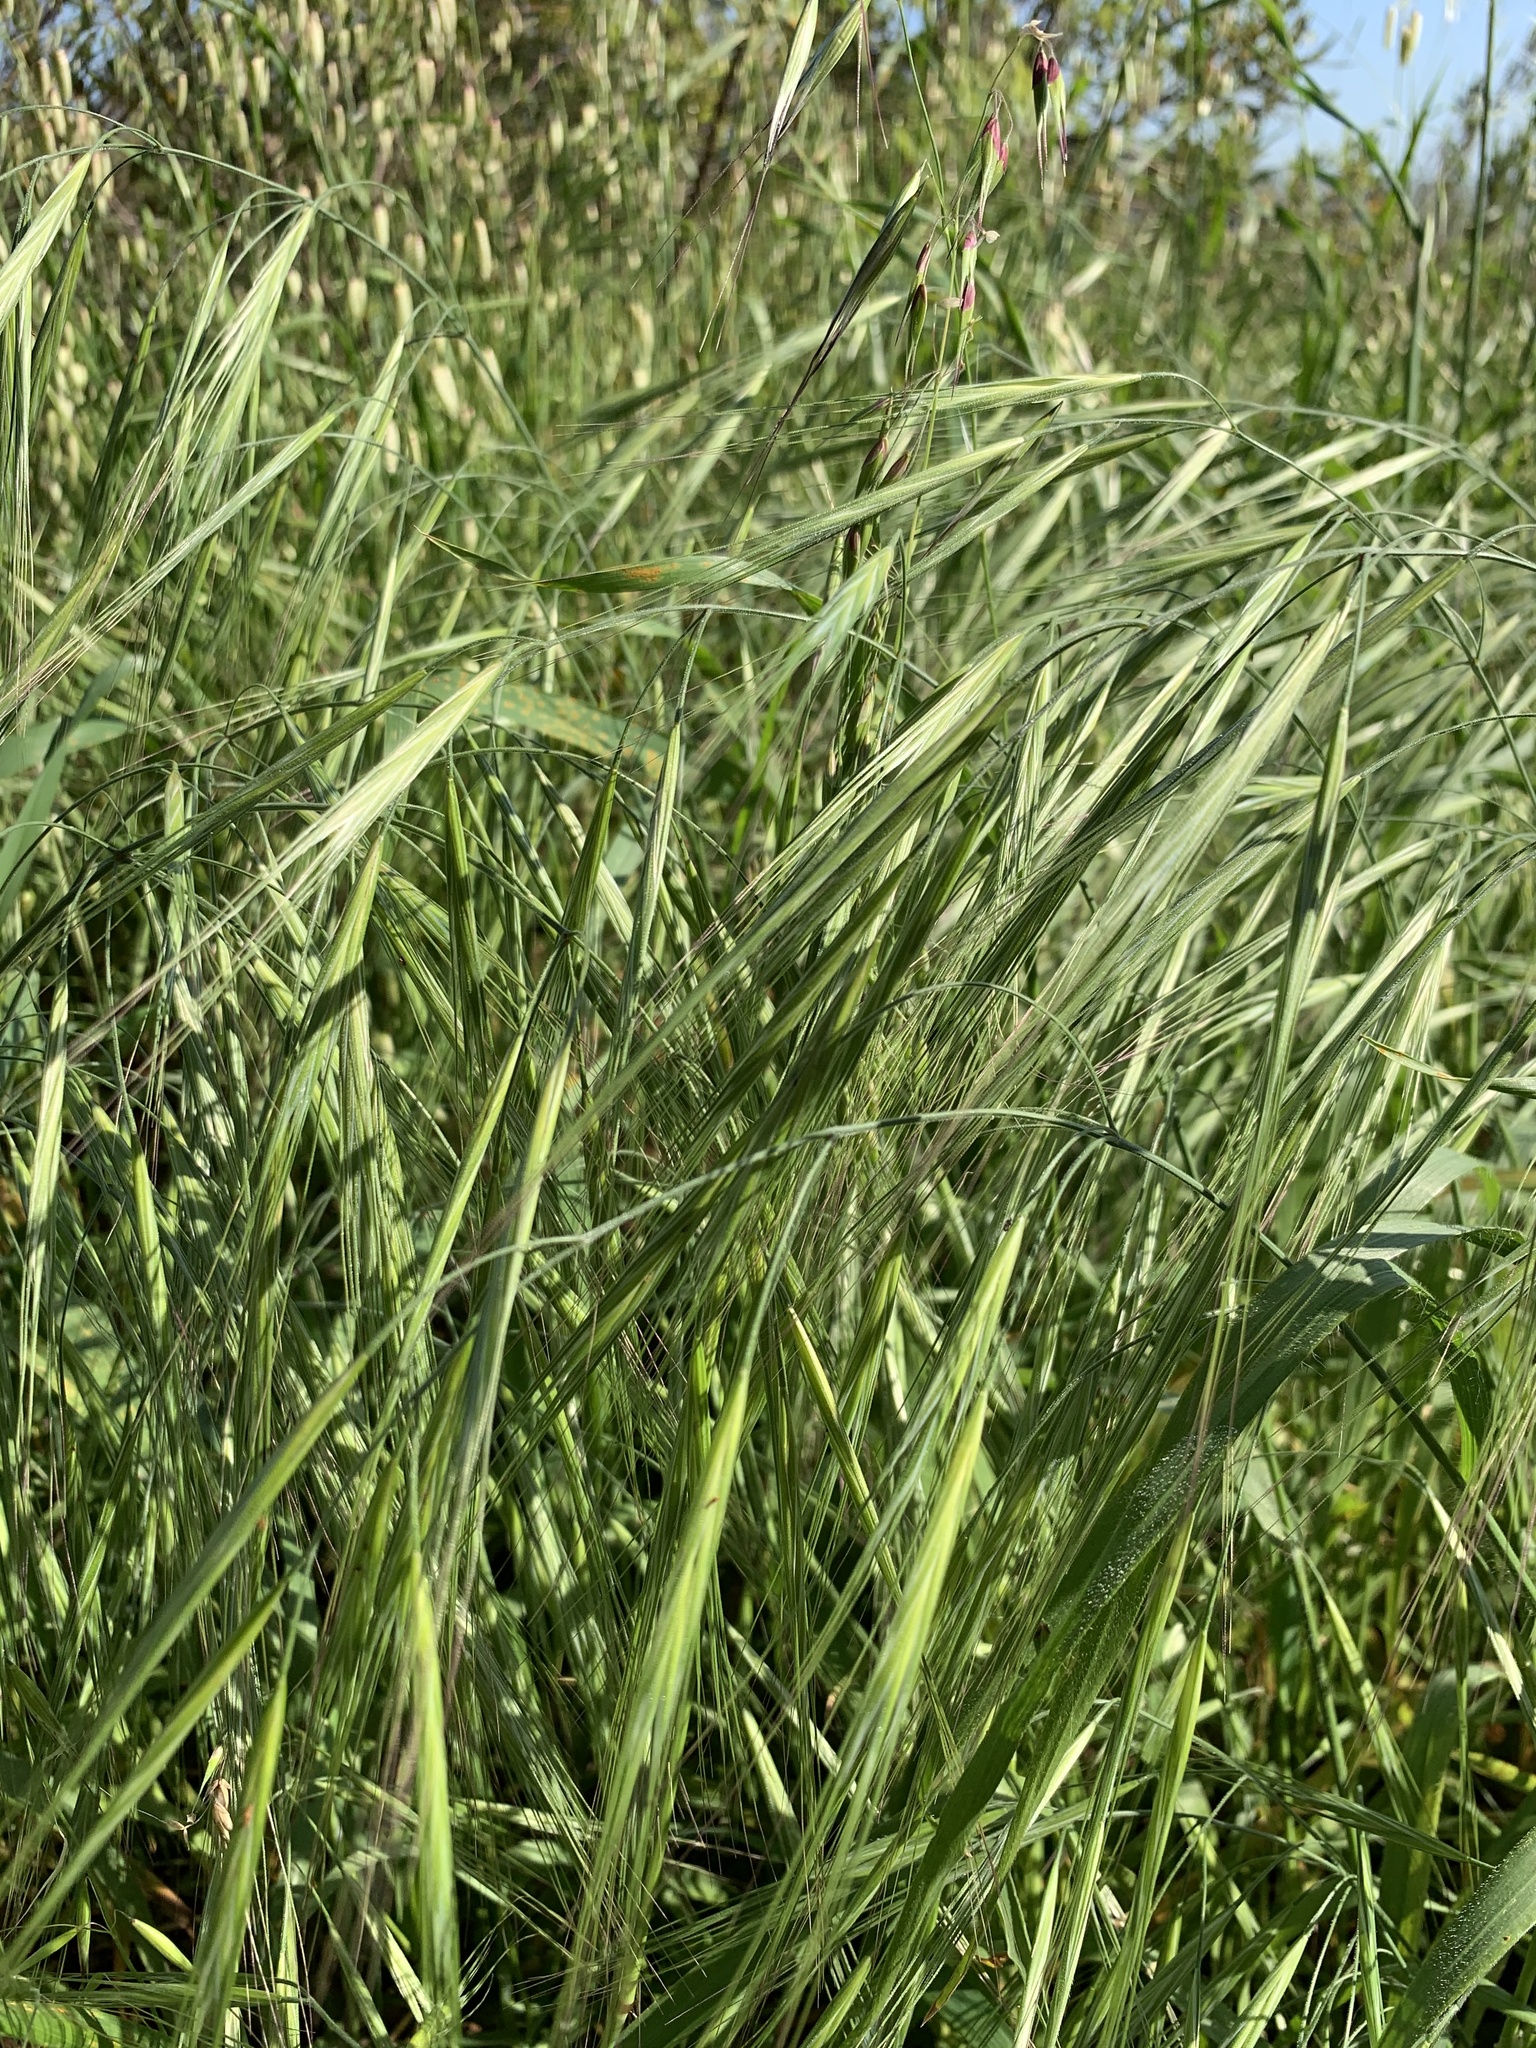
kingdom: Plantae
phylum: Tracheophyta
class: Liliopsida
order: Poales
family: Poaceae
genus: Bromus
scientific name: Bromus diandrus
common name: Ripgut brome
